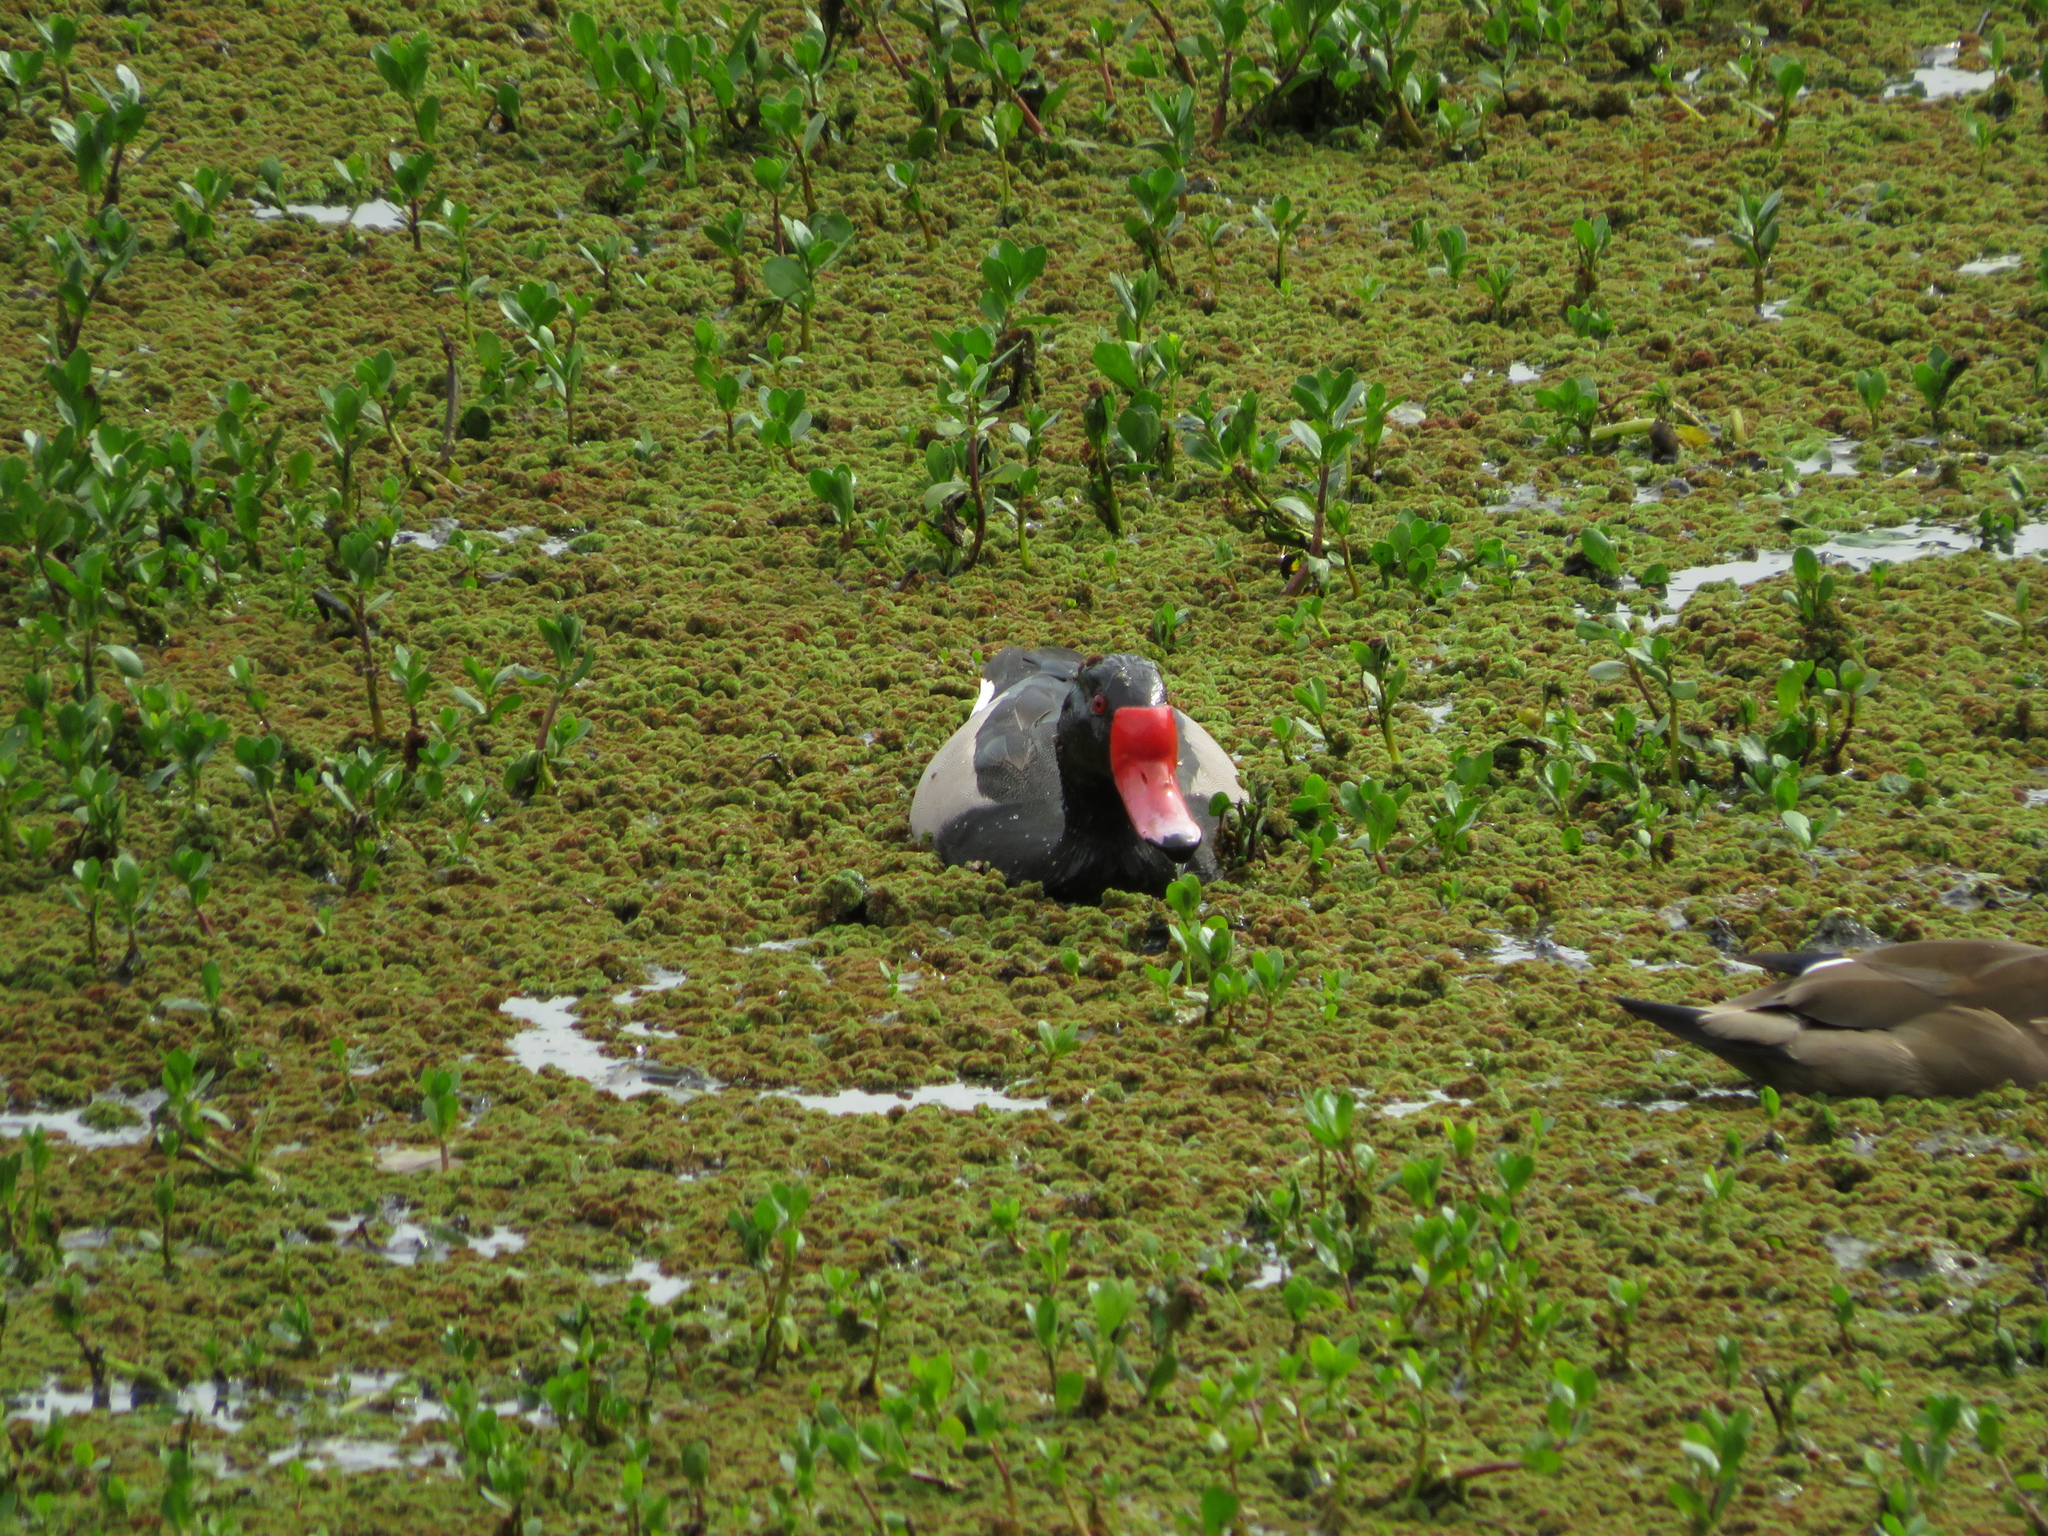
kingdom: Animalia
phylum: Chordata
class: Aves
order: Anseriformes
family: Anatidae
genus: Netta
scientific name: Netta peposaca
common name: Rosy-billed pochard
